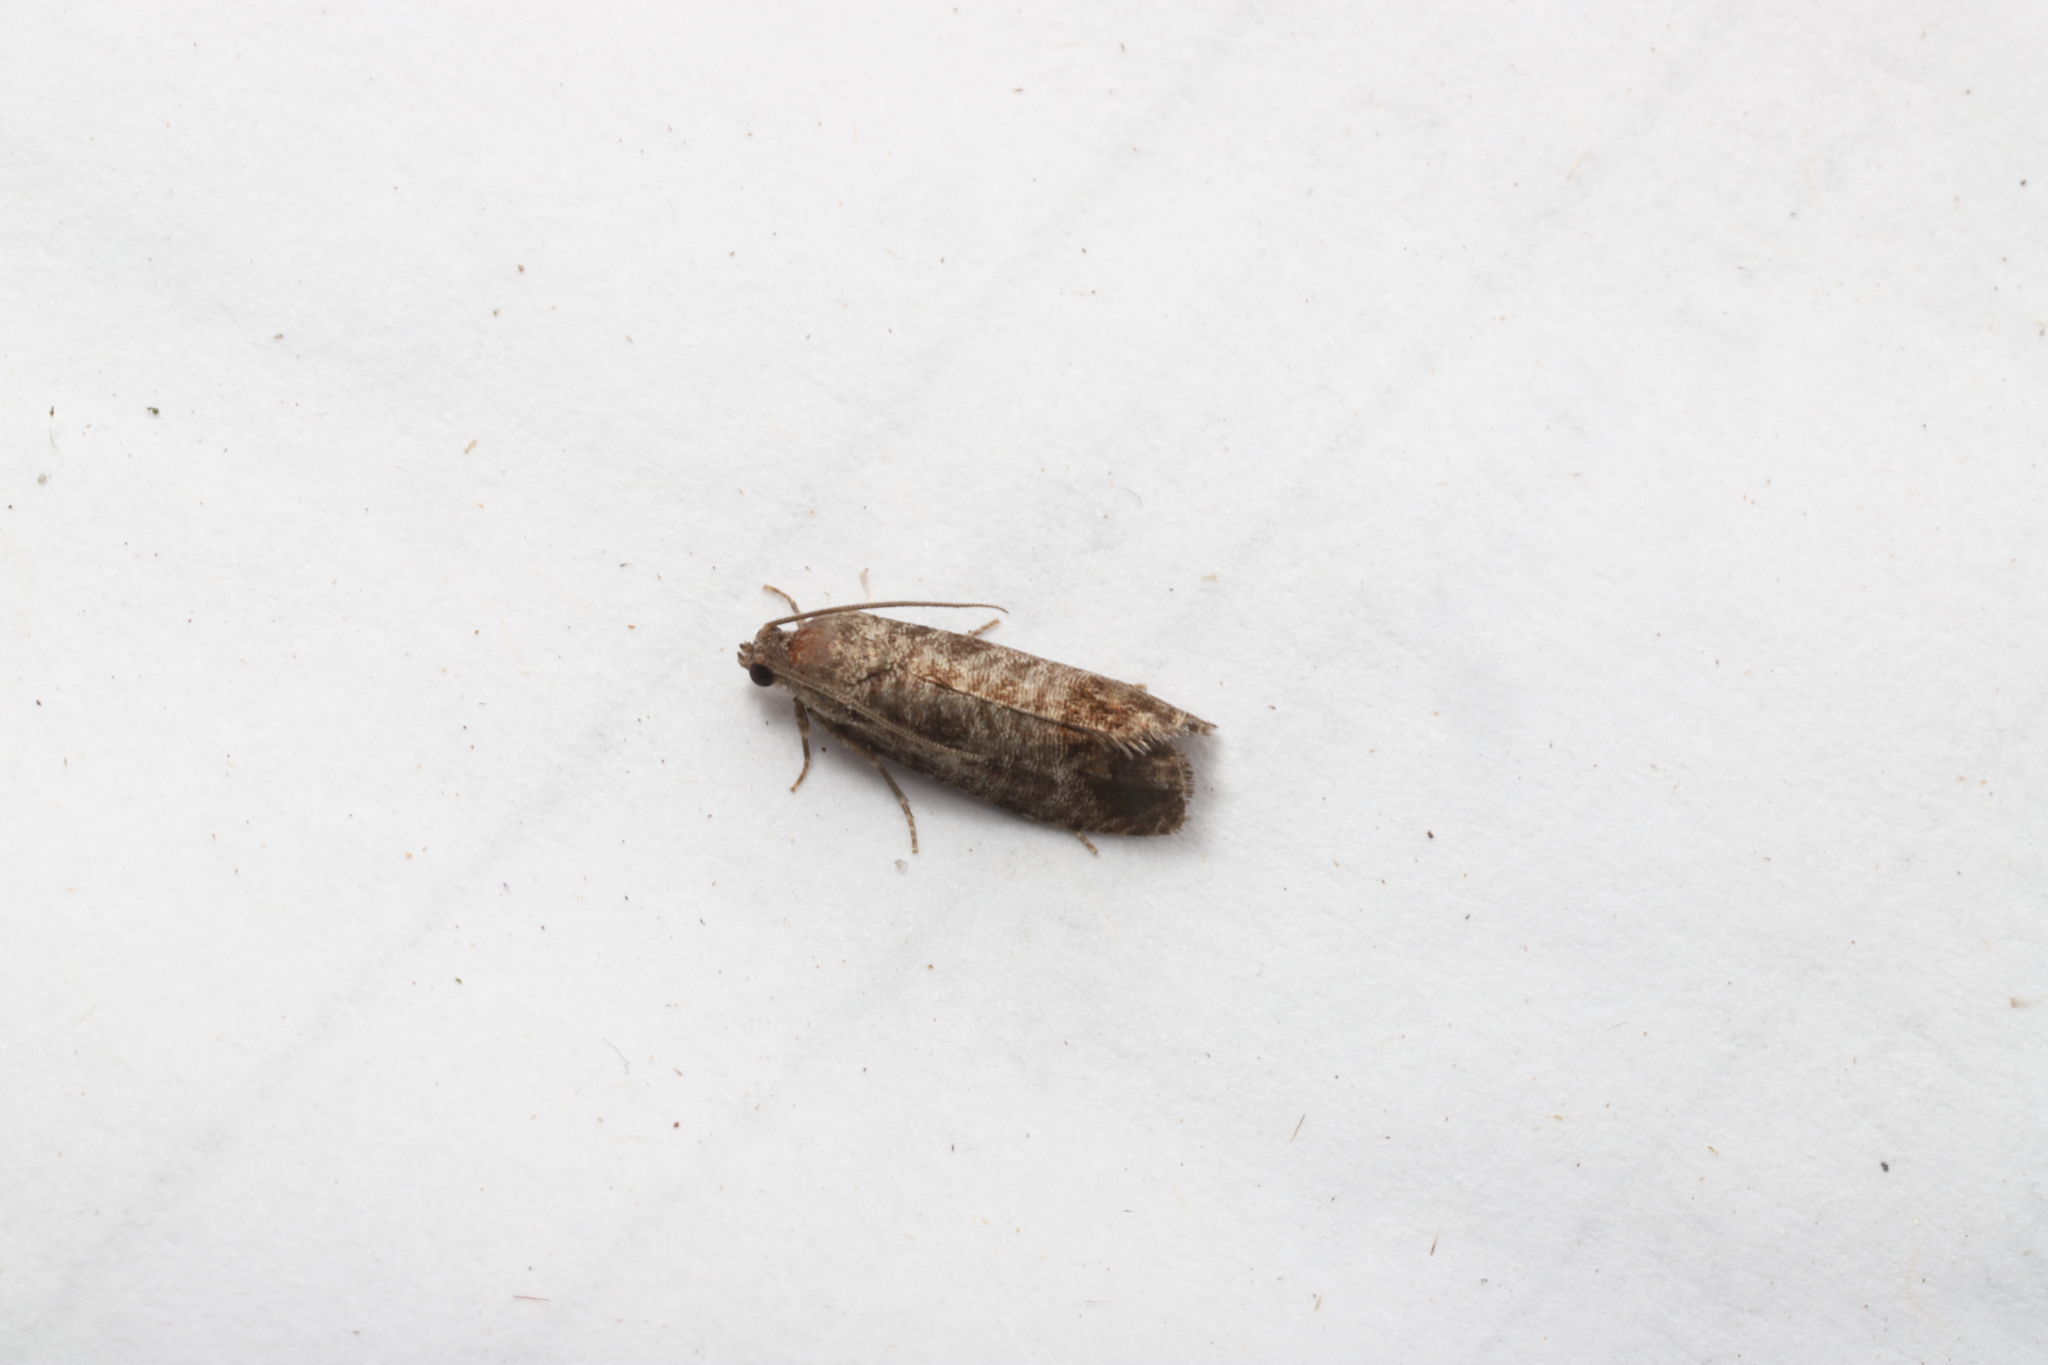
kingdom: Animalia
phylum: Arthropoda
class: Insecta
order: Lepidoptera
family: Tortricidae
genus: Cydia
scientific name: Cydia pomonella
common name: Codling moth
